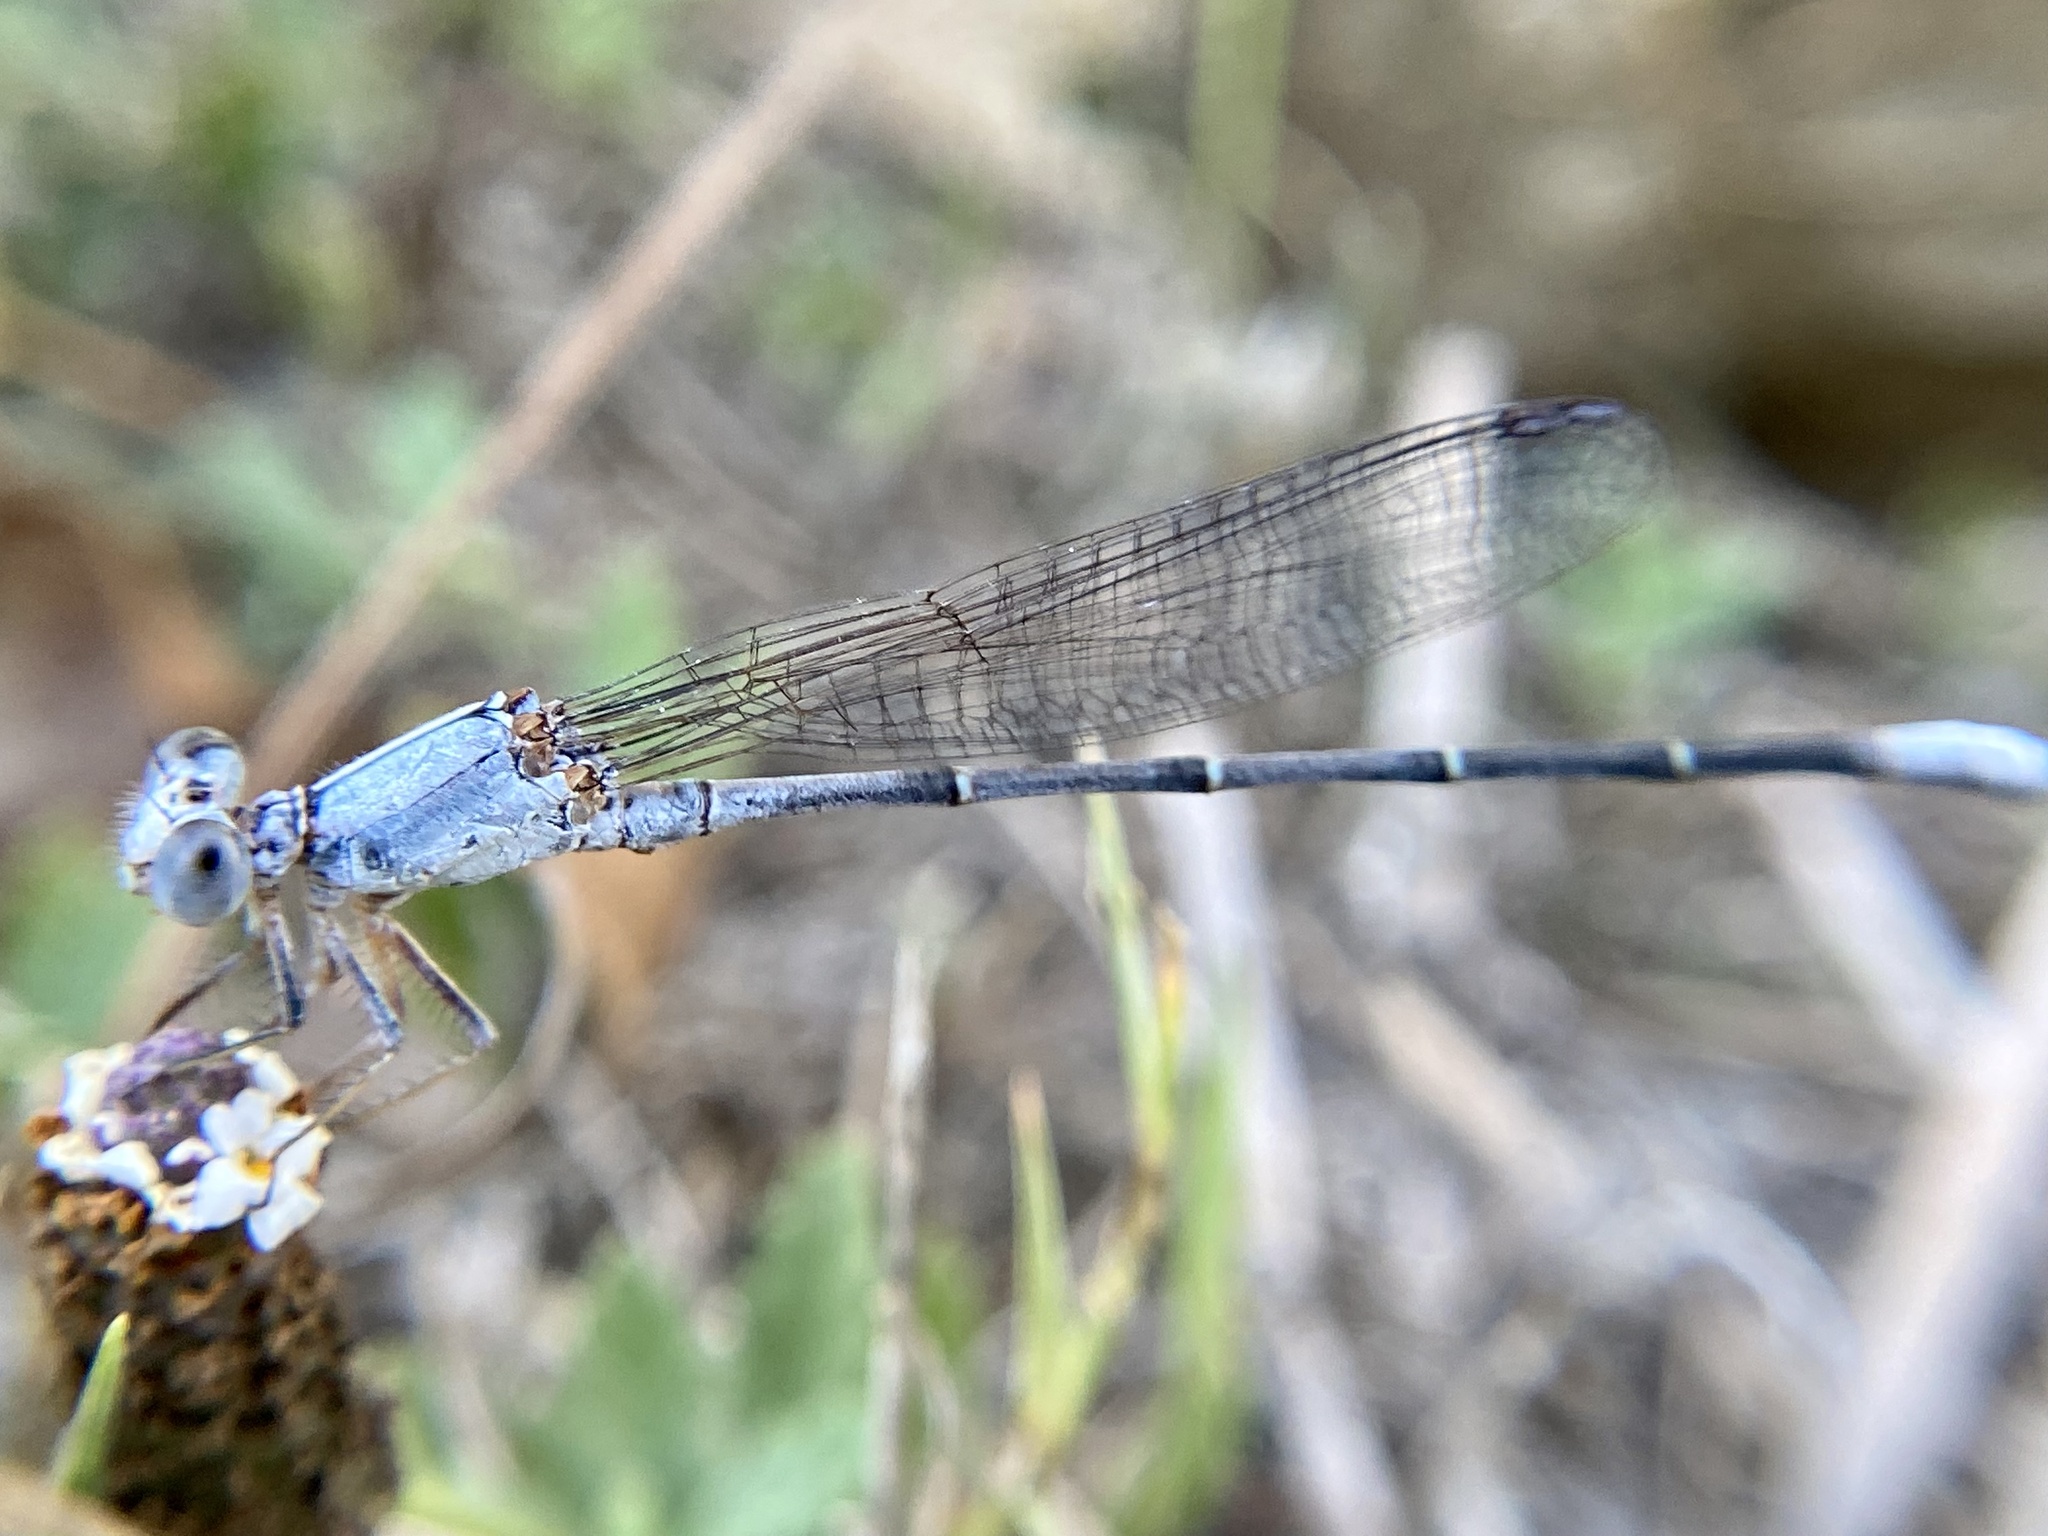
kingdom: Animalia
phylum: Arthropoda
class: Insecta
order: Odonata
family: Coenagrionidae
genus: Argia
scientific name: Argia moesta
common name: Powdered dancer
